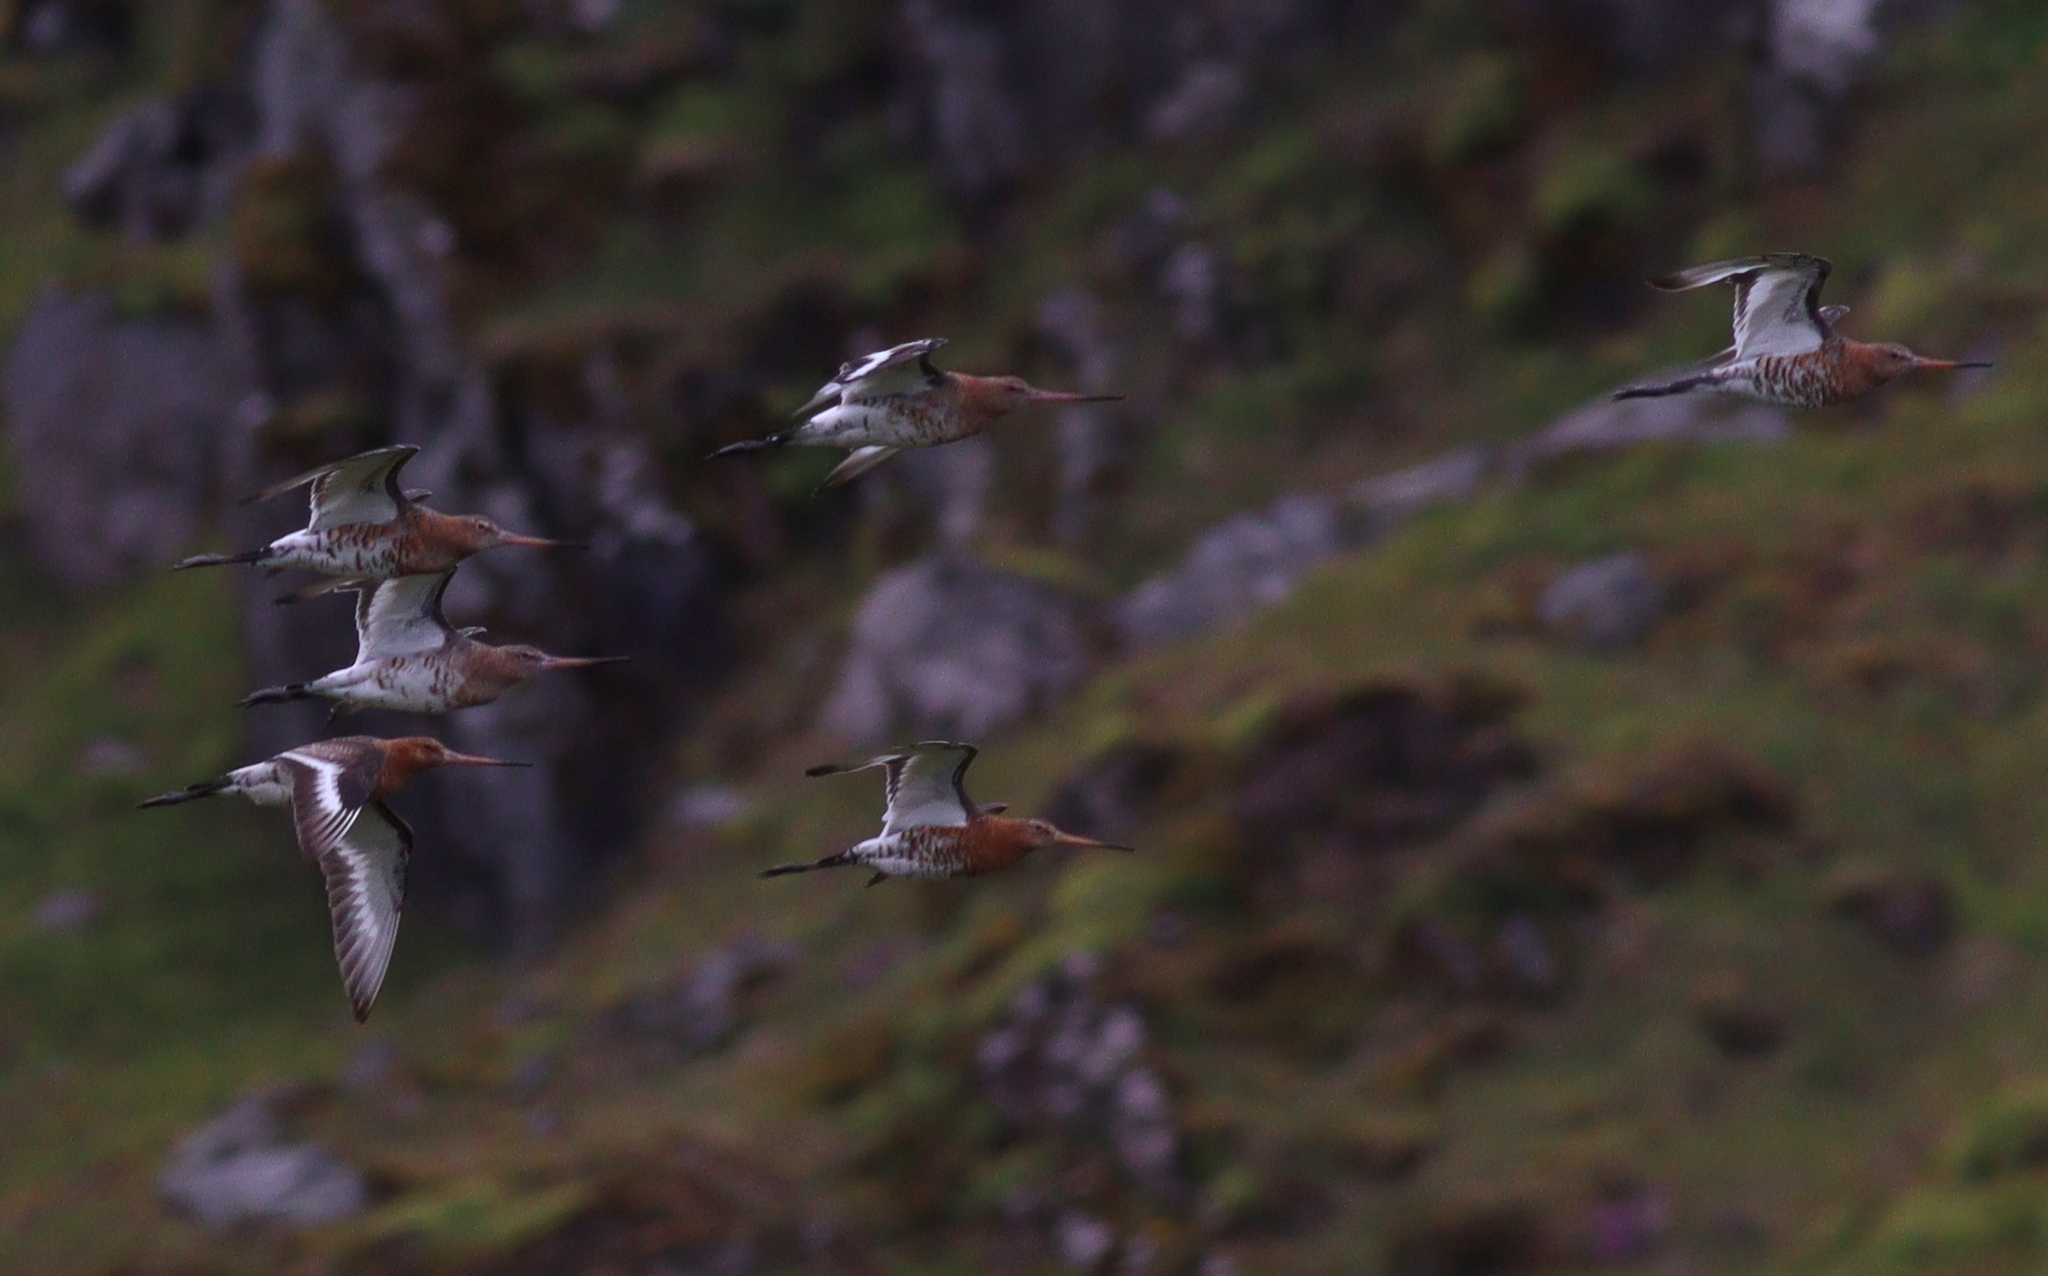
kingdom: Animalia
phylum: Chordata
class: Aves
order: Charadriiformes
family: Scolopacidae
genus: Limosa
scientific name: Limosa limosa
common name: Black-tailed godwit
